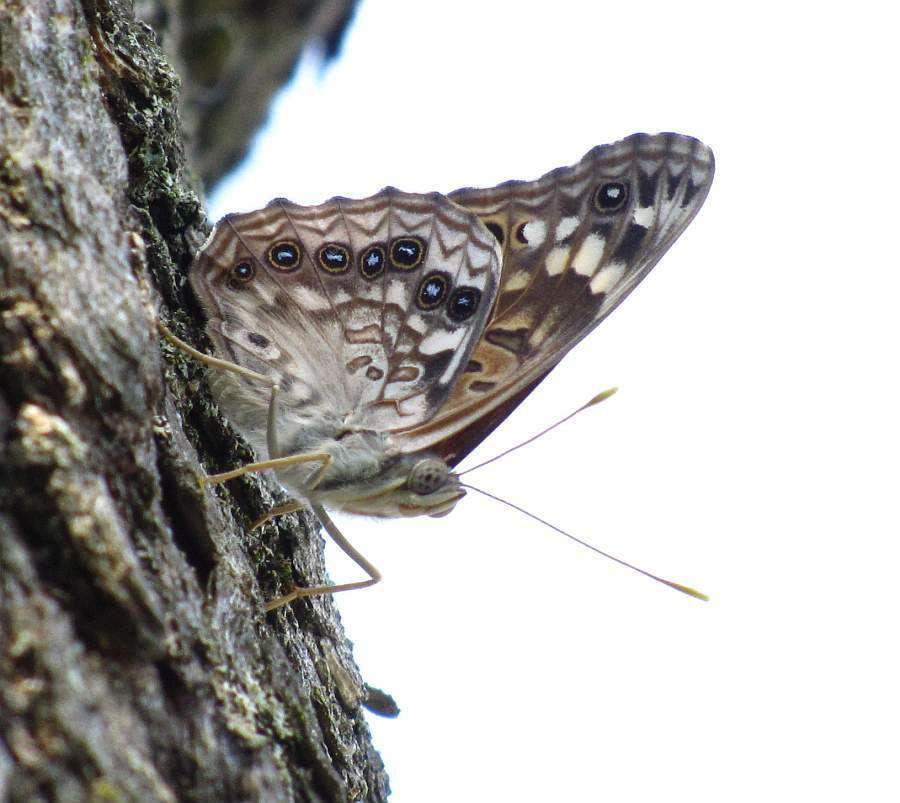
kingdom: Animalia
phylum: Arthropoda
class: Insecta
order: Lepidoptera
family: Nymphalidae
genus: Asterocampa
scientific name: Asterocampa celtis
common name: Hackberry emperor
